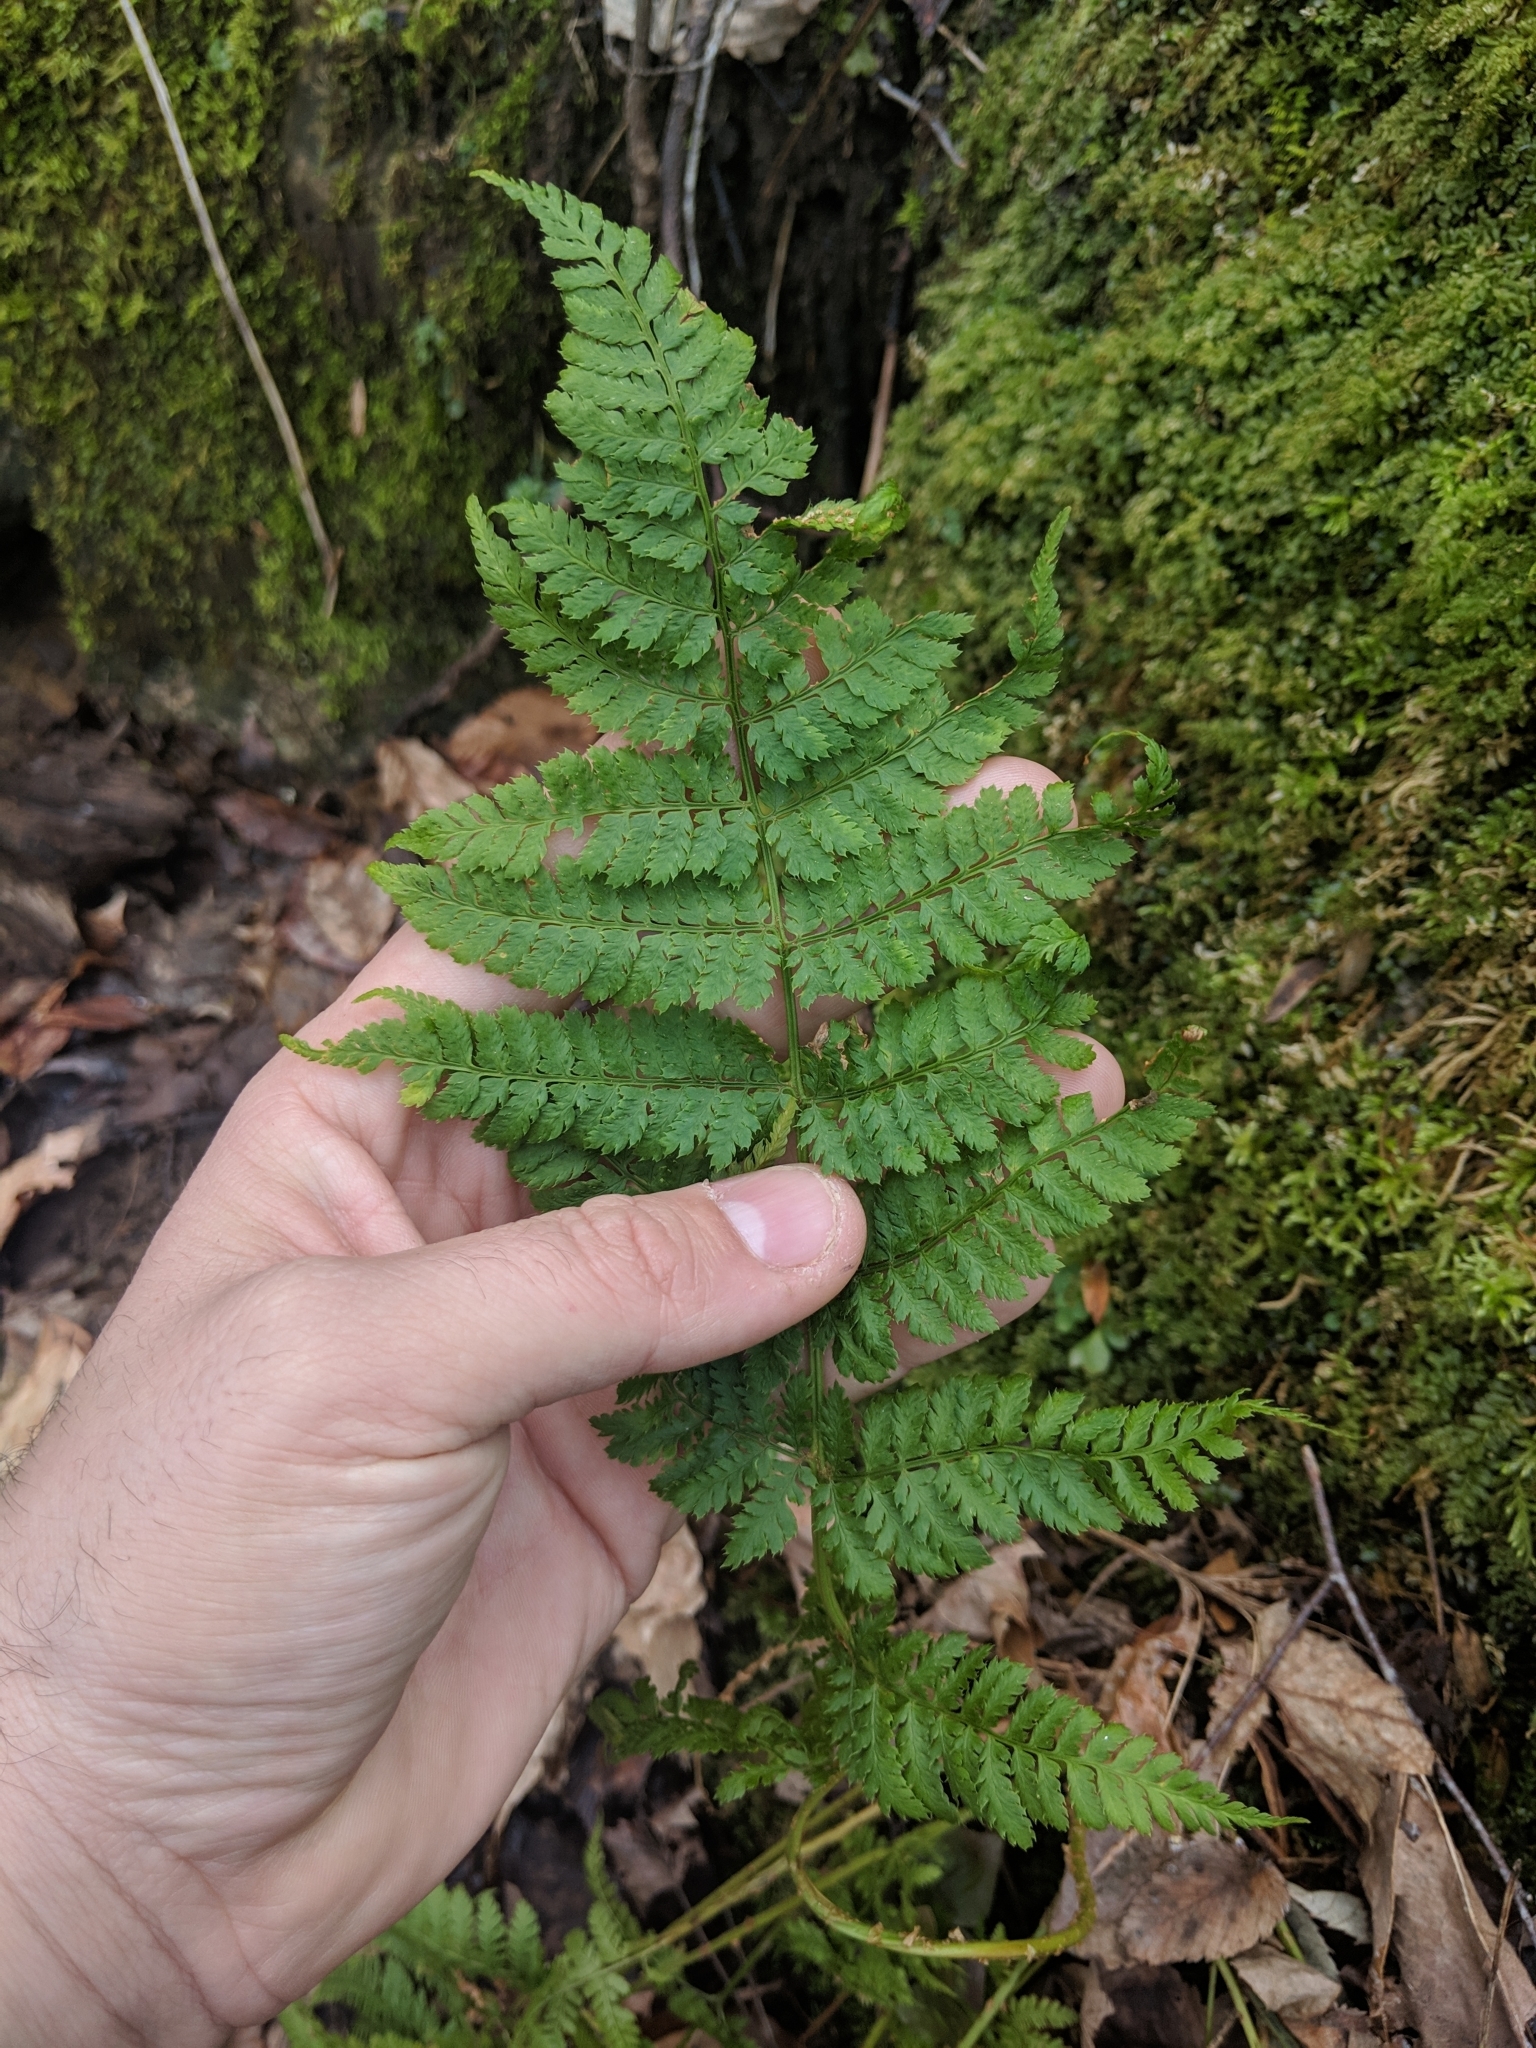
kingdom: Plantae
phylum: Tracheophyta
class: Polypodiopsida
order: Polypodiales
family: Dryopteridaceae
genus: Dryopteris
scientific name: Dryopteris intermedia
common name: Evergreen wood fern
